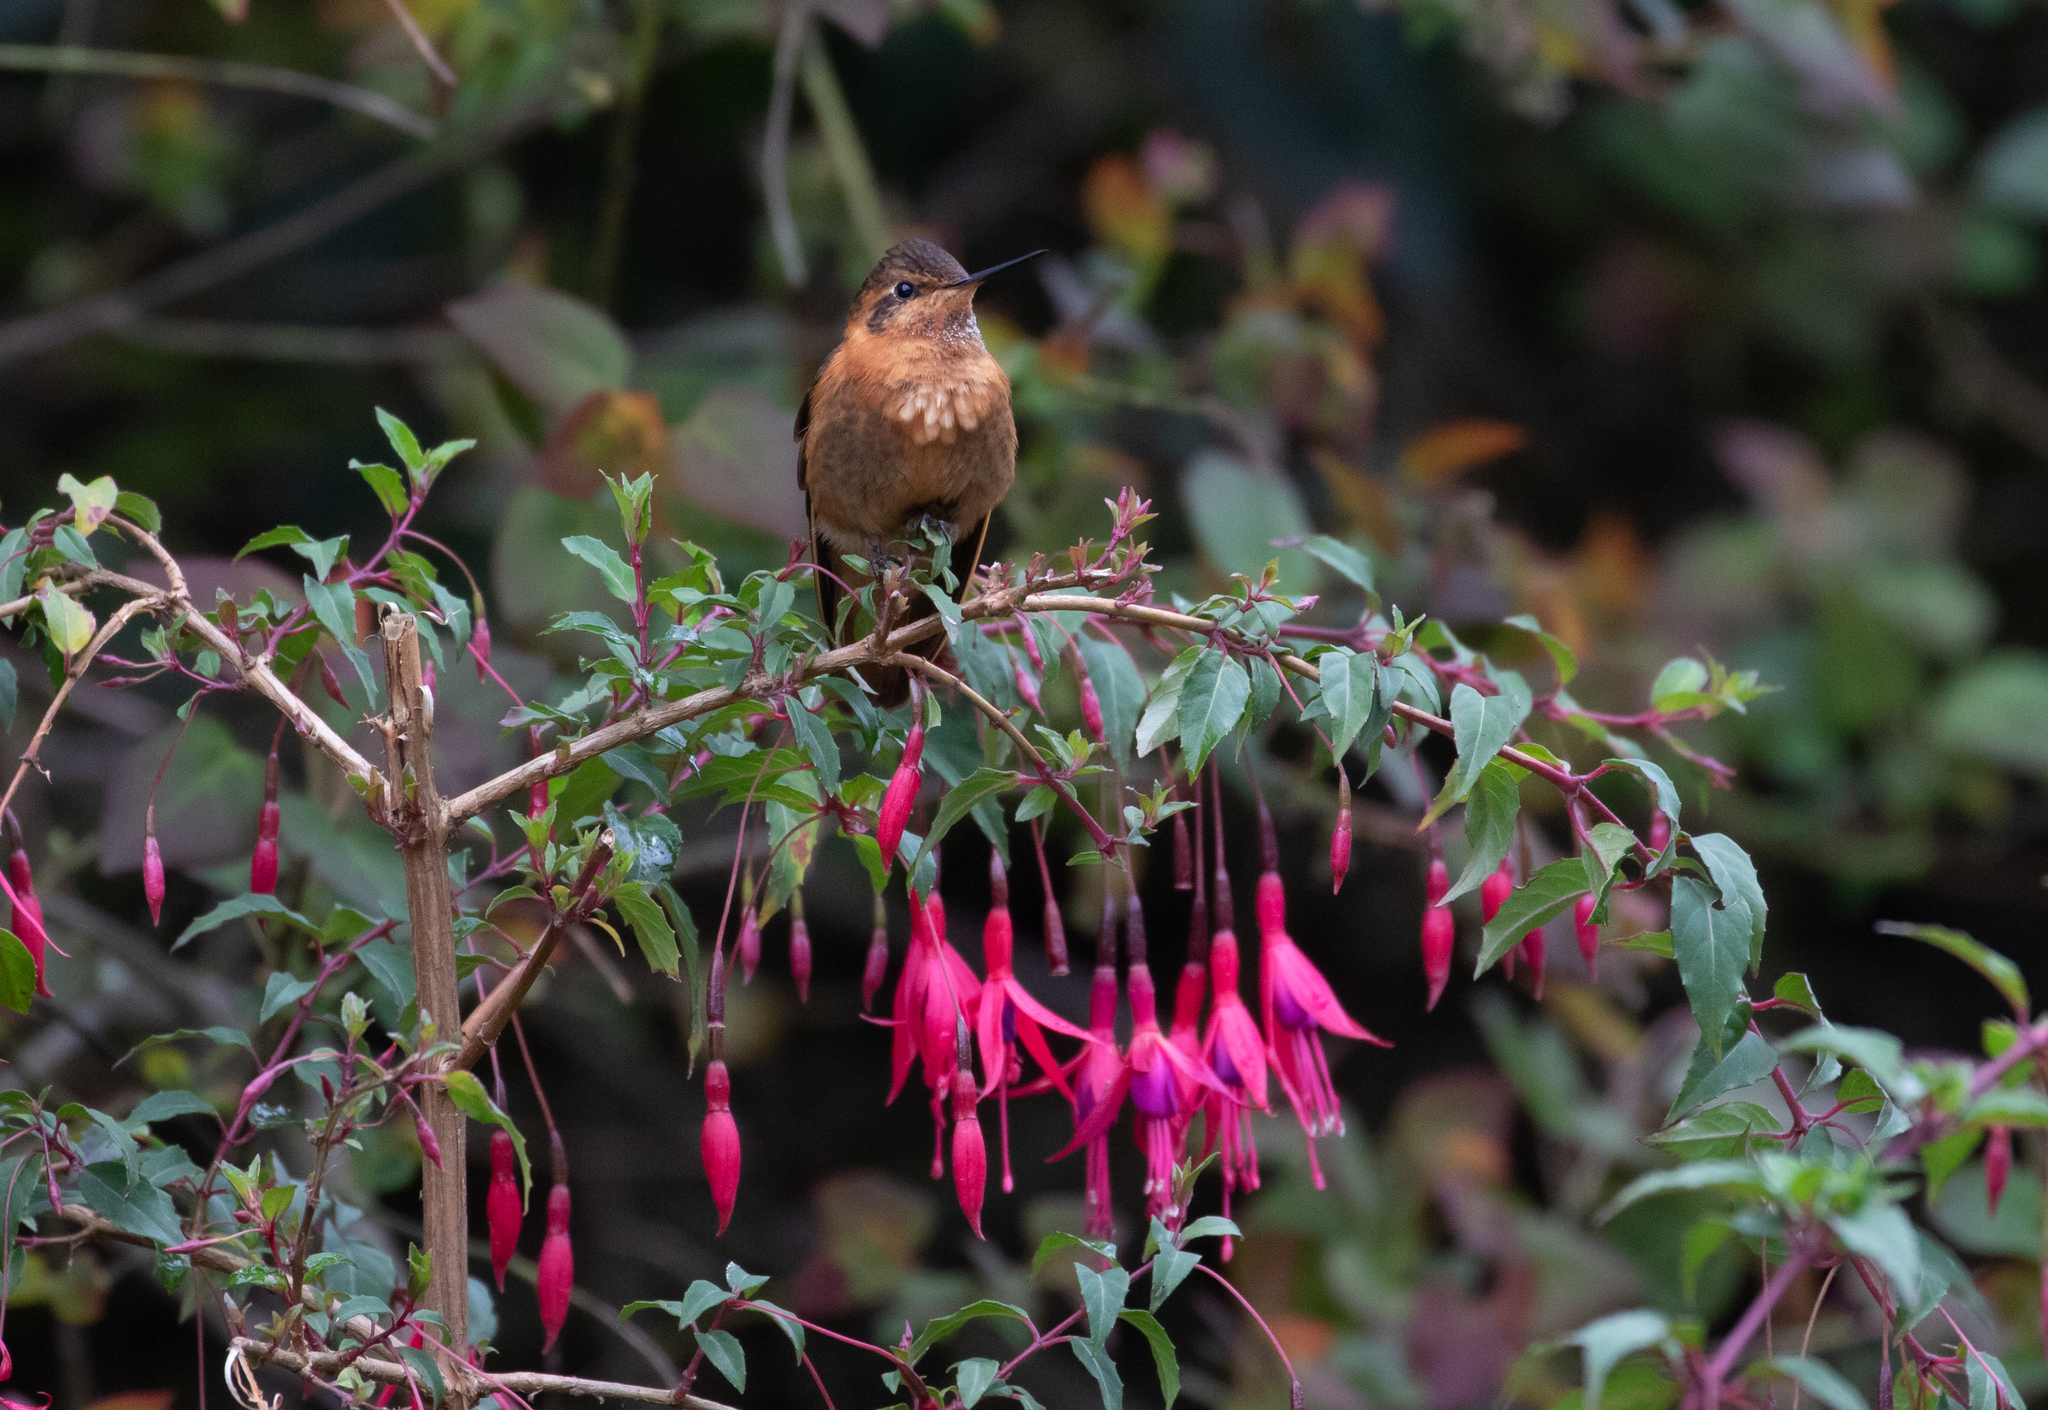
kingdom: Animalia
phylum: Chordata
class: Aves
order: Apodiformes
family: Trochilidae
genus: Aglaeactis
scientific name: Aglaeactis cupripennis
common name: Shining sunbeam
